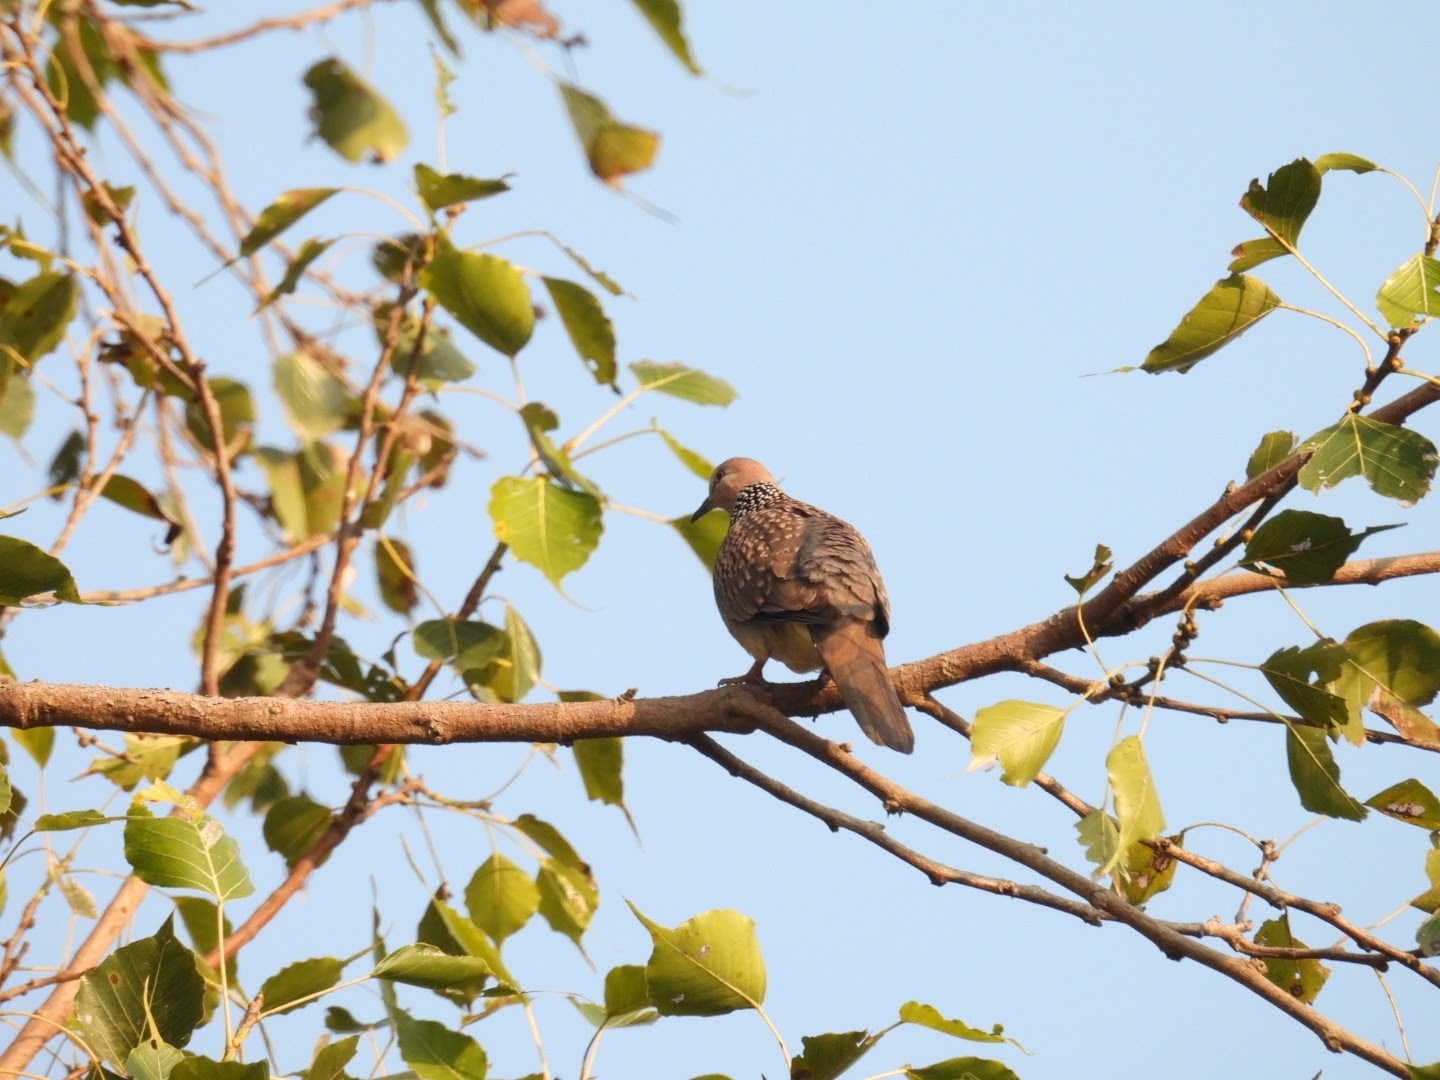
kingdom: Animalia
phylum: Chordata
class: Aves
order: Columbiformes
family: Columbidae
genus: Spilopelia
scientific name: Spilopelia chinensis
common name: Spotted dove
